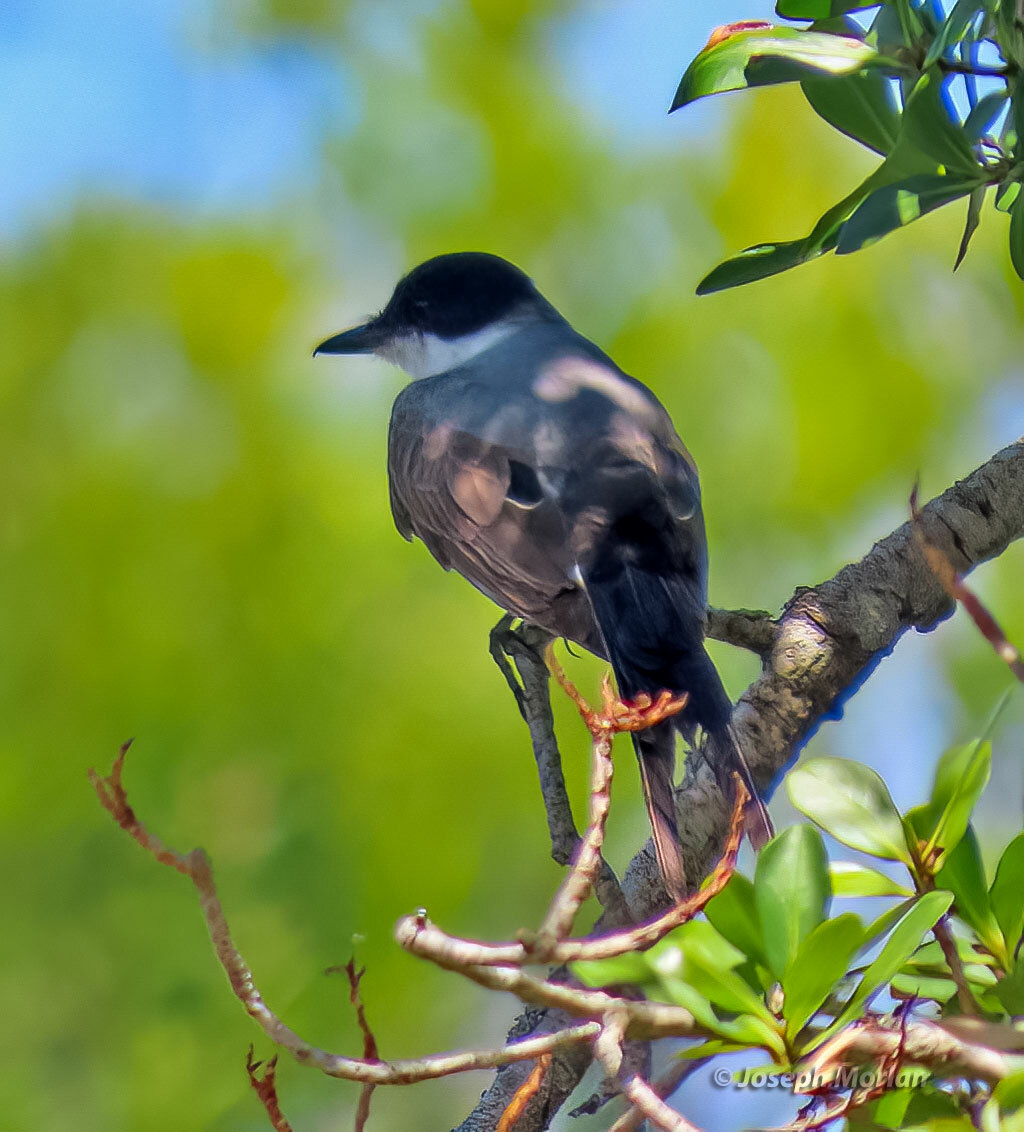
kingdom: Animalia
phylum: Chordata
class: Aves
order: Passeriformes
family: Tyrannidae
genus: Tyrannus
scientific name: Tyrannus savana
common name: Fork-tailed flycatcher
